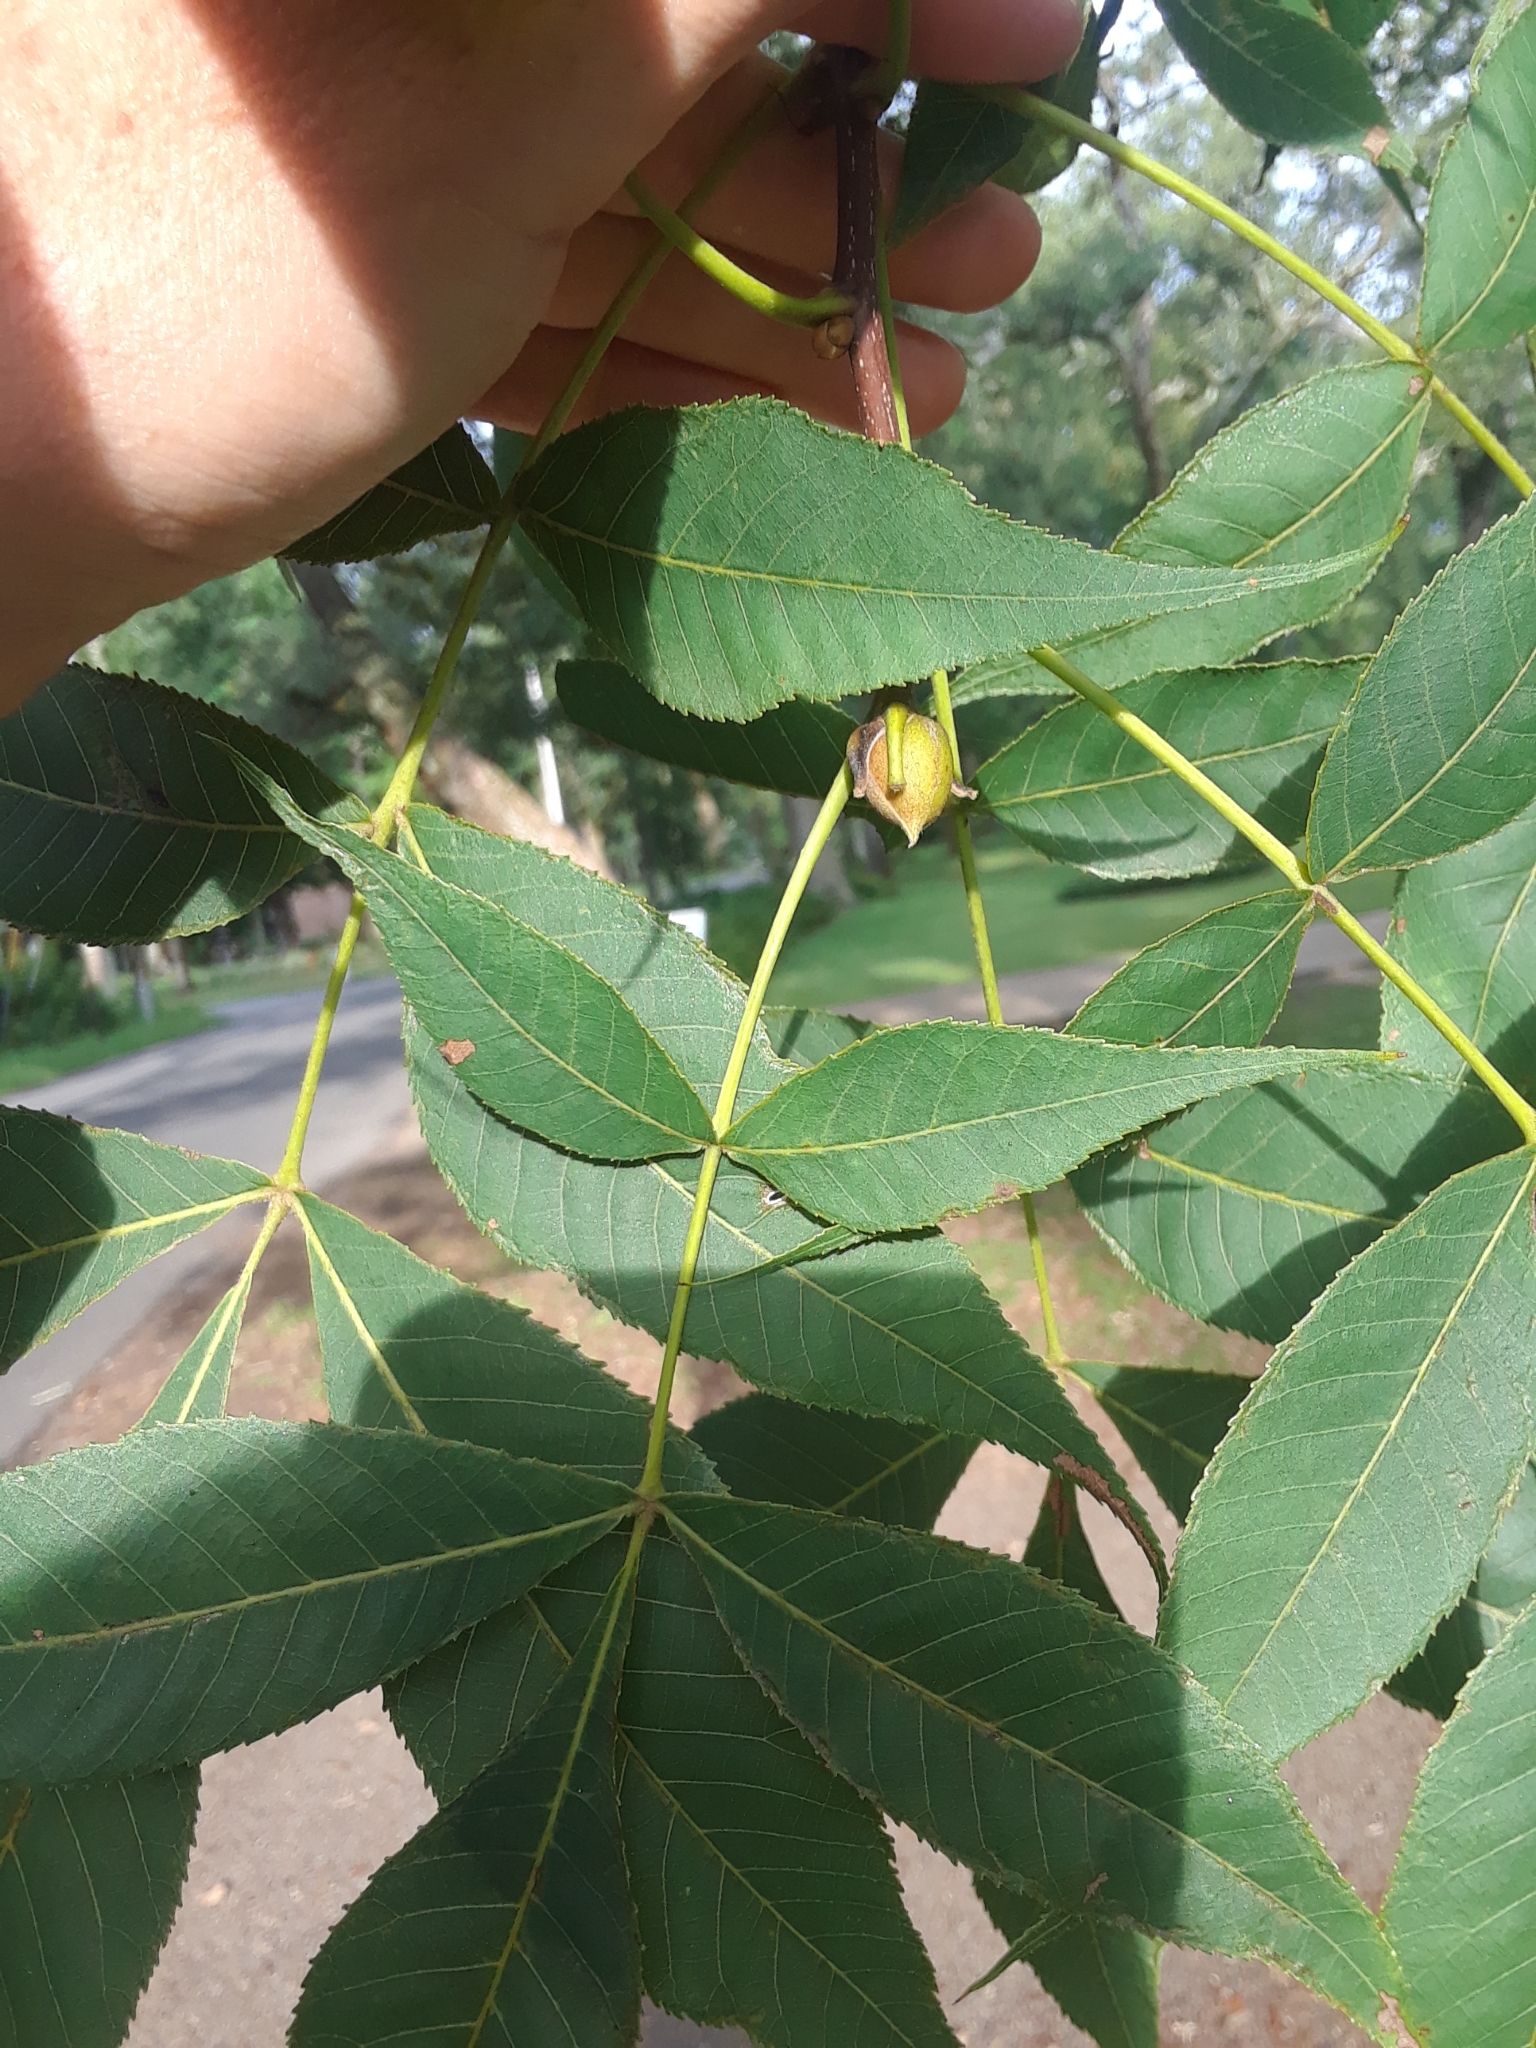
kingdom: Plantae
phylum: Tracheophyta
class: Magnoliopsida
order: Fagales
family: Juglandaceae
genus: Carya
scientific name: Carya alba
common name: Mockernut hickory
